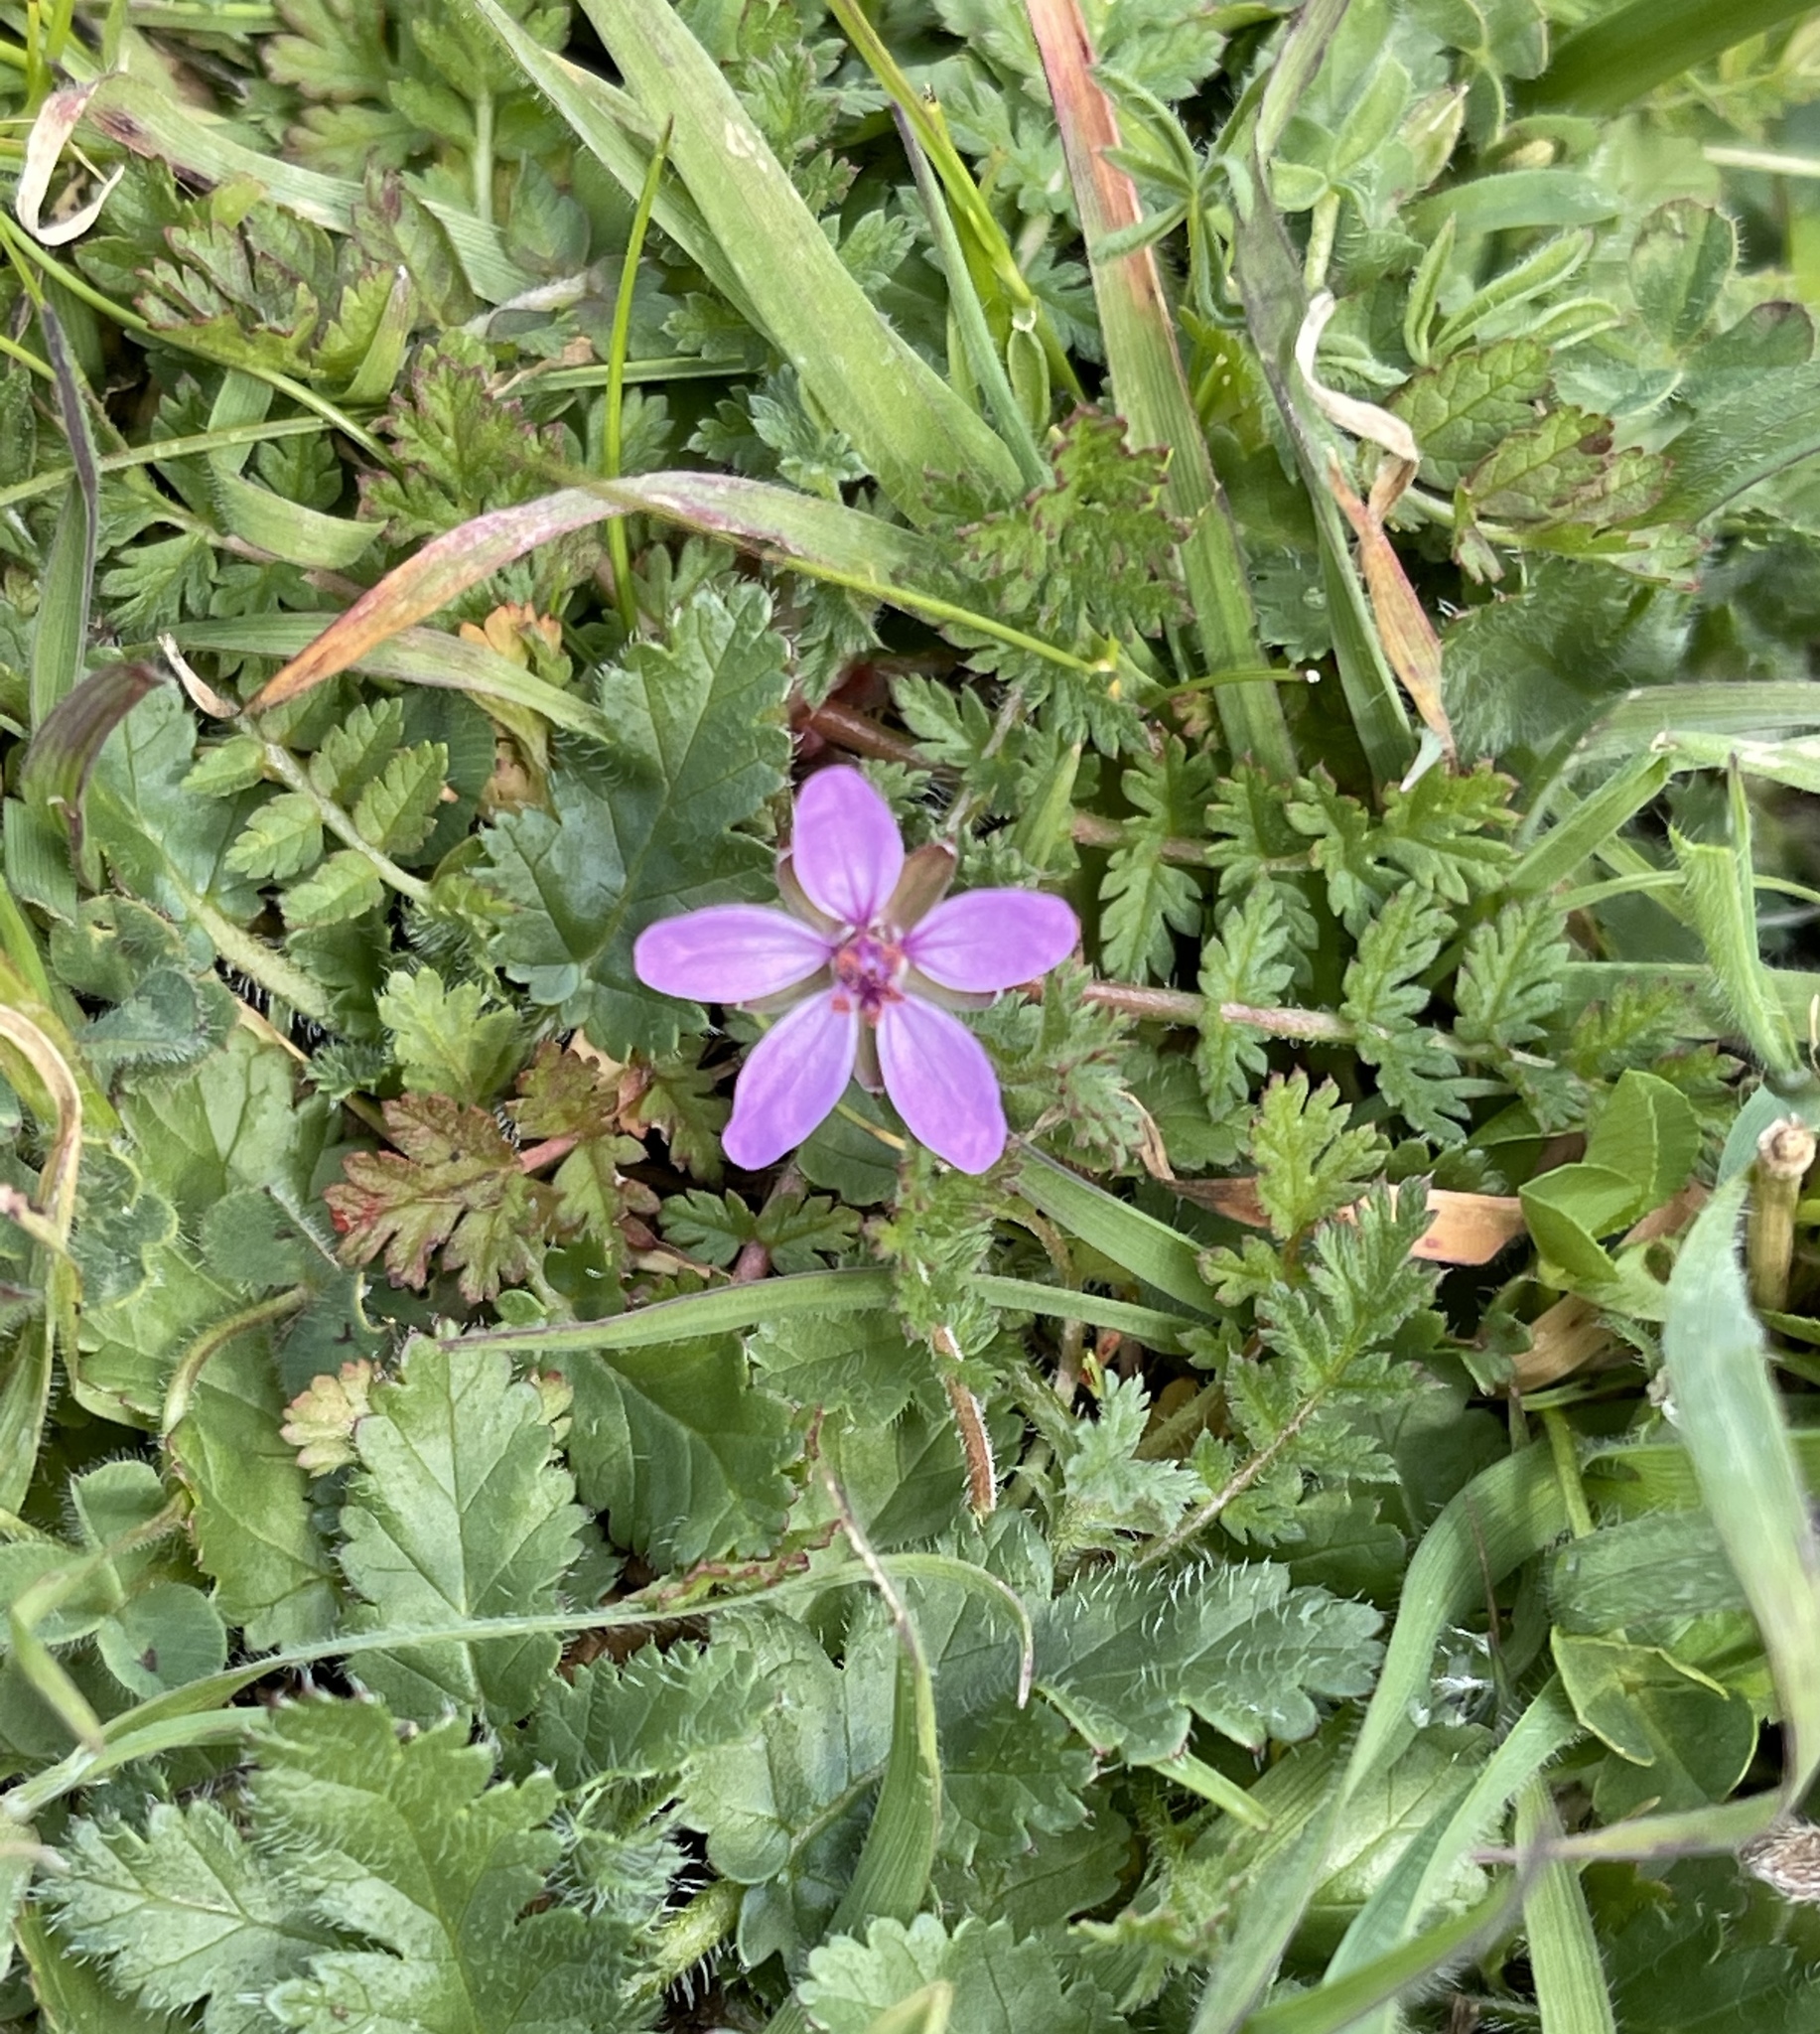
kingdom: Plantae
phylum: Tracheophyta
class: Magnoliopsida
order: Geraniales
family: Geraniaceae
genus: Erodium
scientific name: Erodium cicutarium
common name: Common stork's-bill
